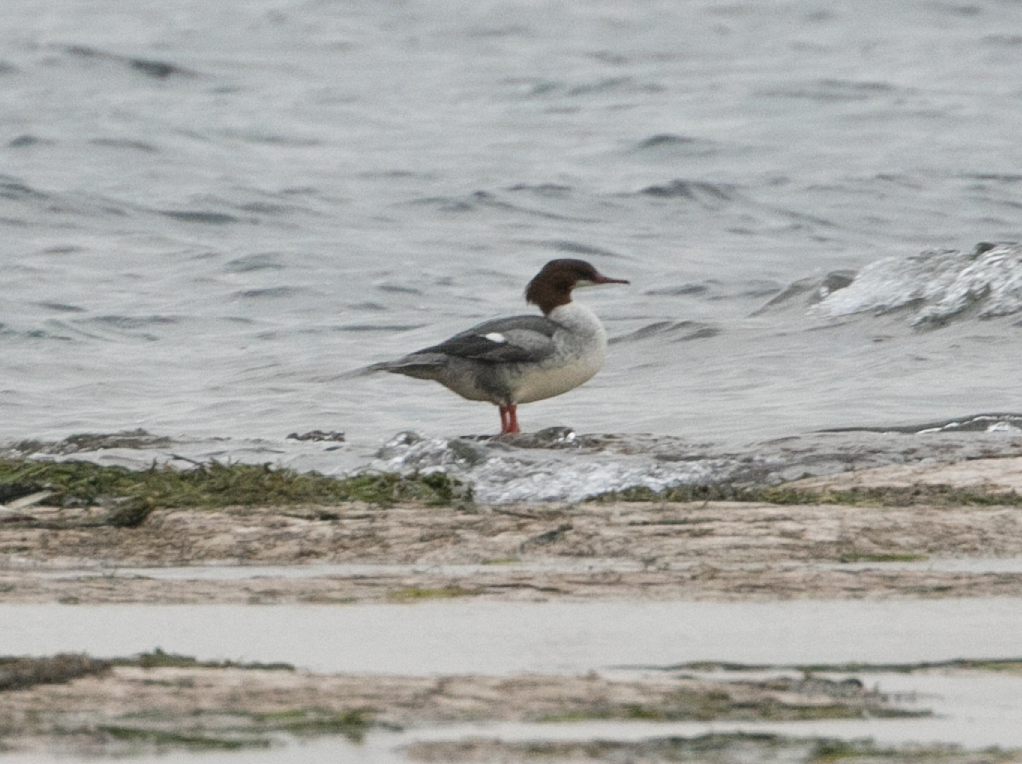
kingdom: Animalia
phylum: Chordata
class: Aves
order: Anseriformes
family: Anatidae
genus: Mergus
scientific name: Mergus merganser
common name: Common merganser
